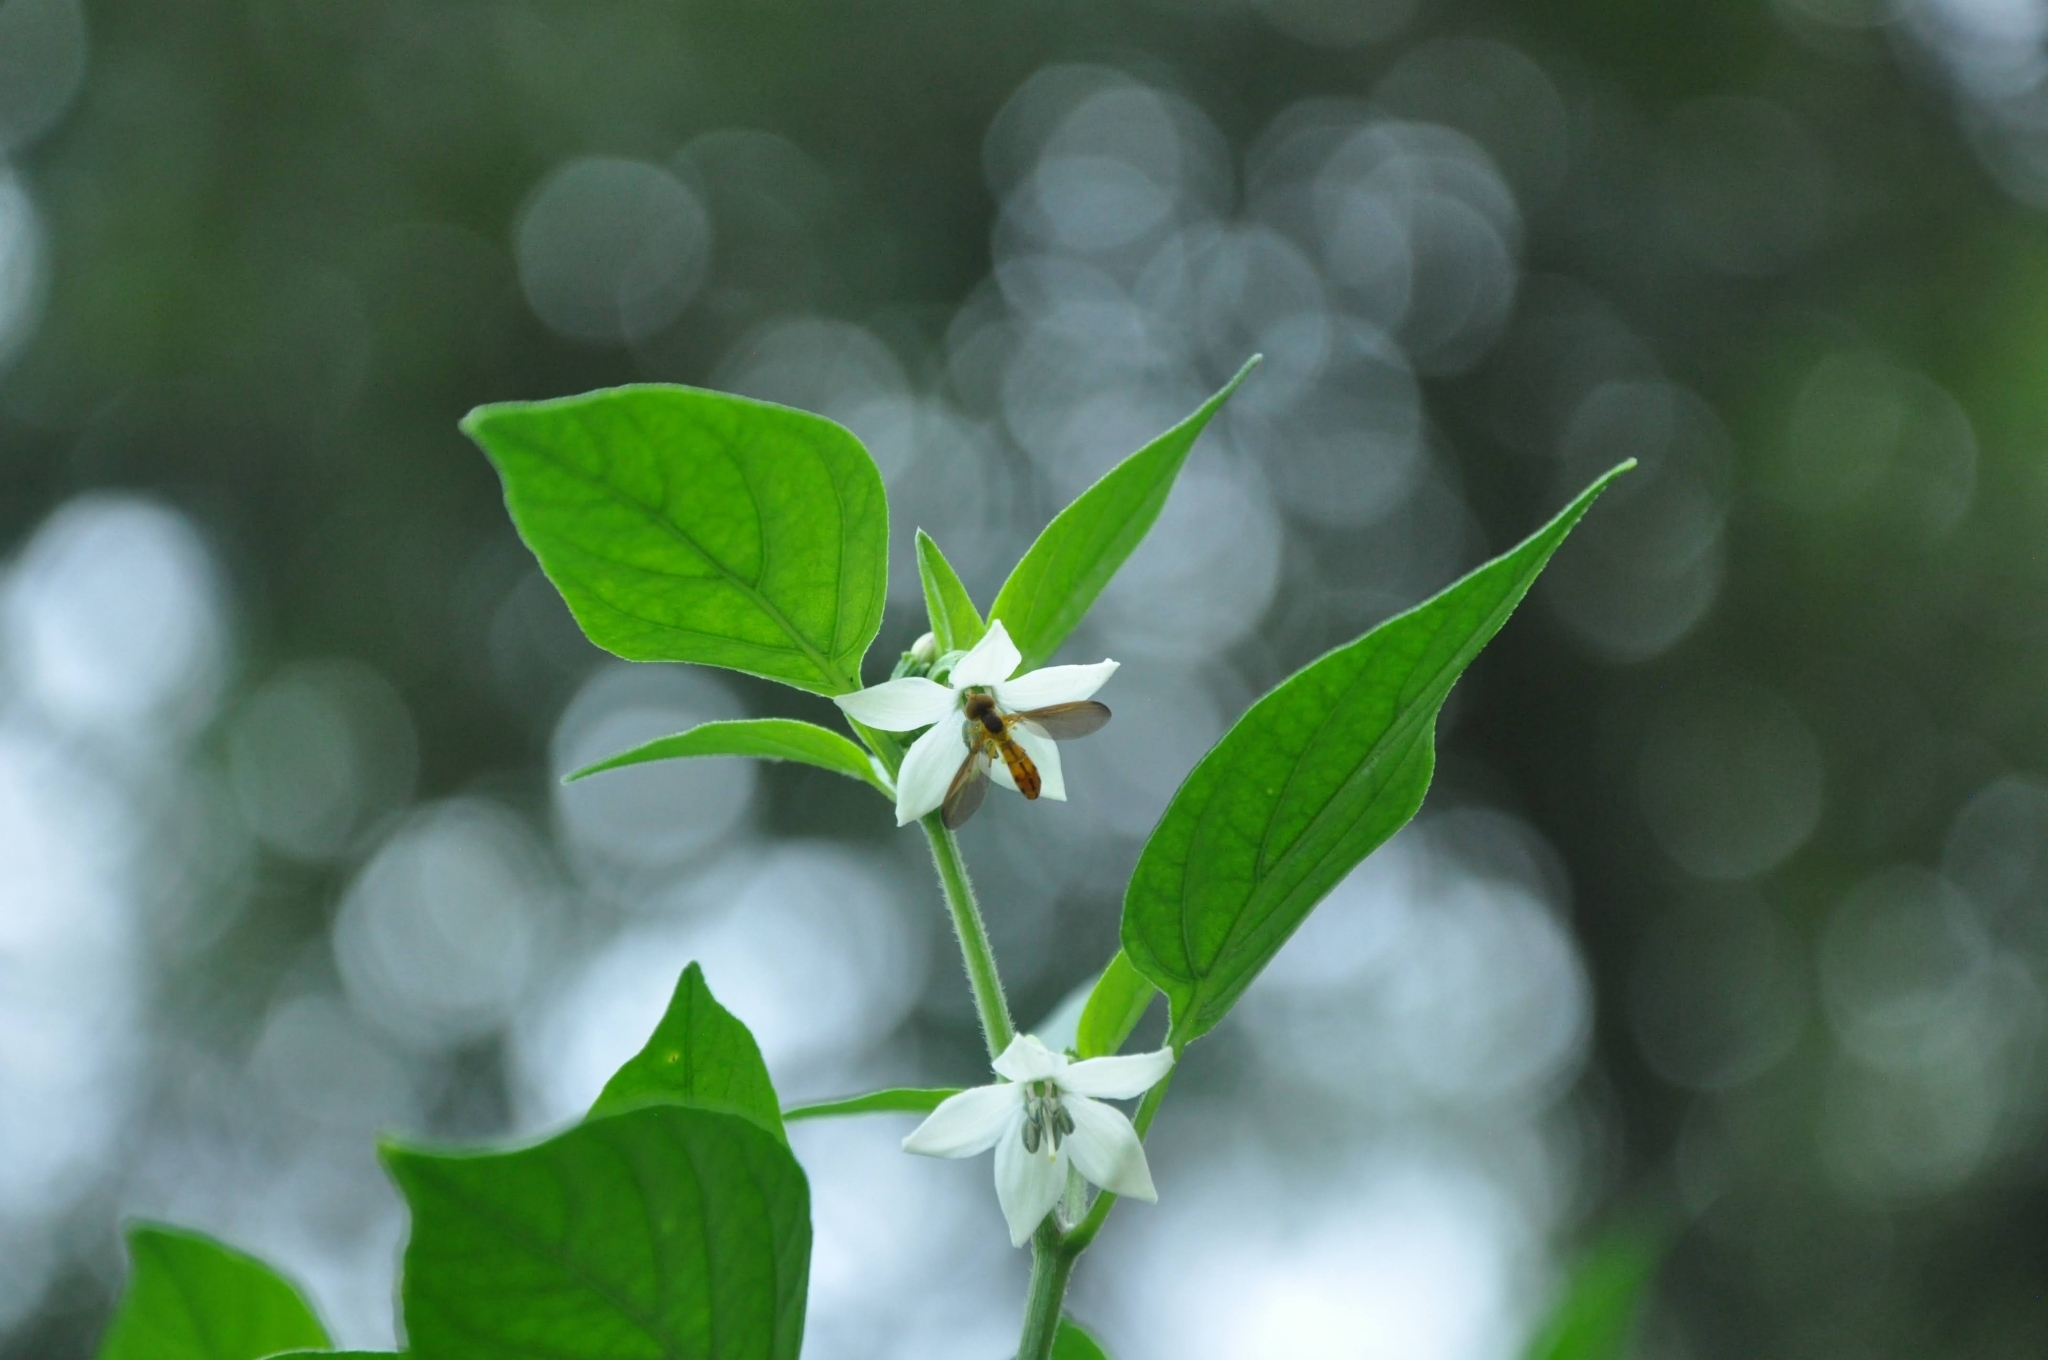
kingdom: Animalia
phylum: Arthropoda
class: Insecta
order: Diptera
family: Syrphidae
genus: Nuntianus
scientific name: Nuntianus cubanus
